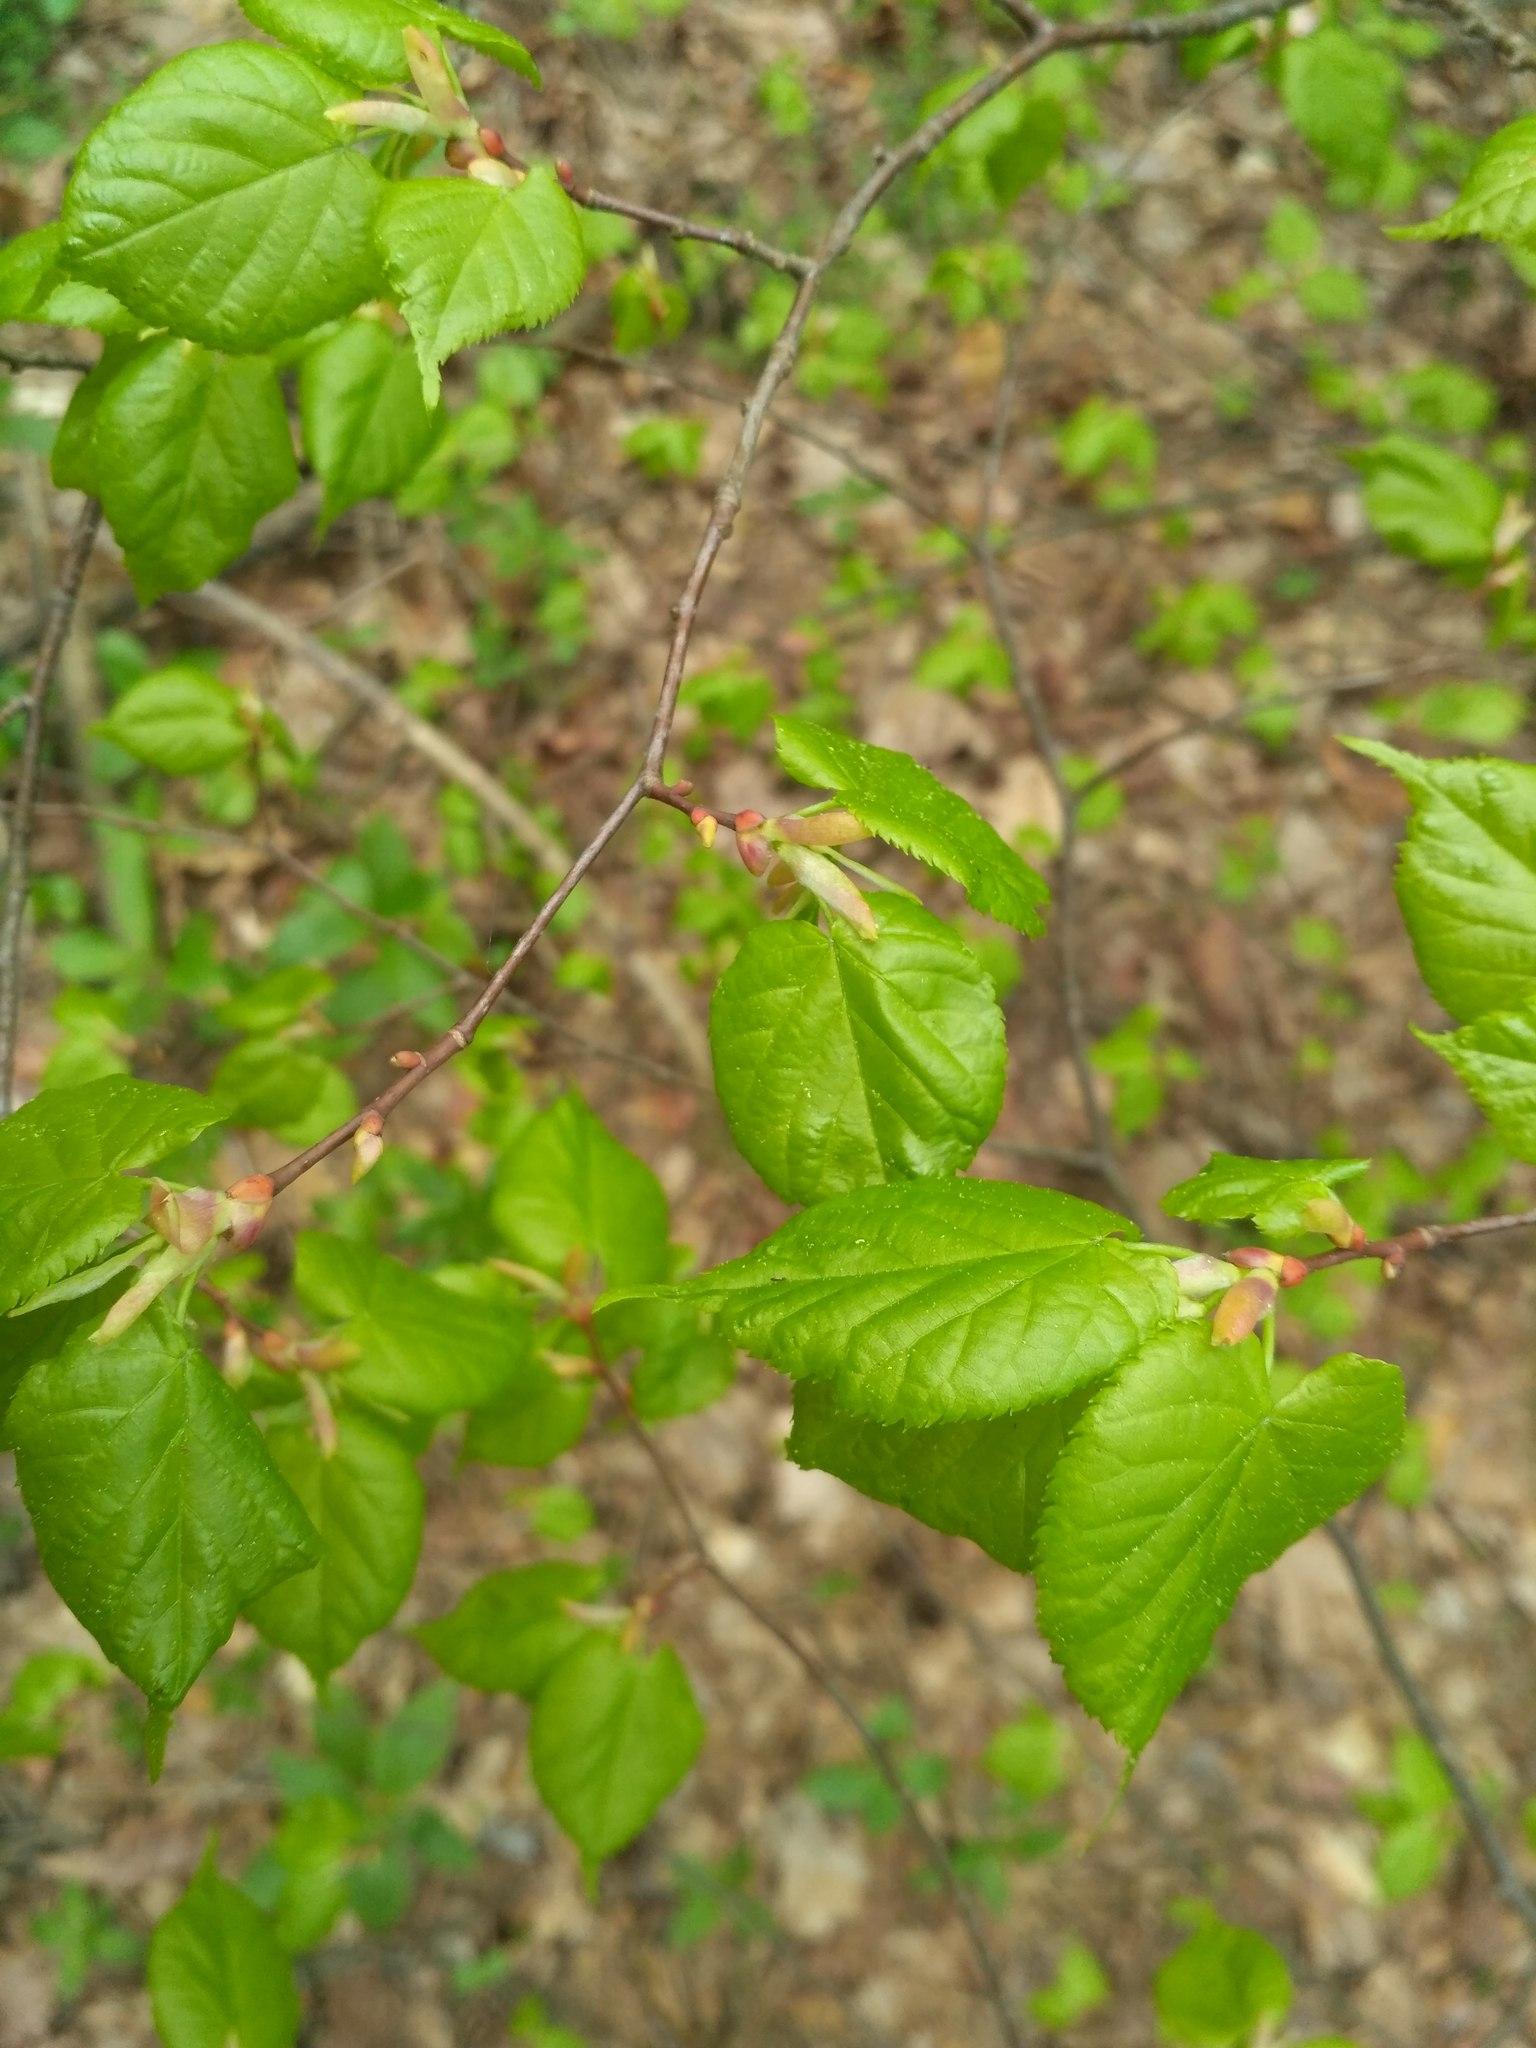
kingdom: Plantae
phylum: Tracheophyta
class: Magnoliopsida
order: Malvales
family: Malvaceae
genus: Tilia
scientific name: Tilia cordata
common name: Small-leaved lime
